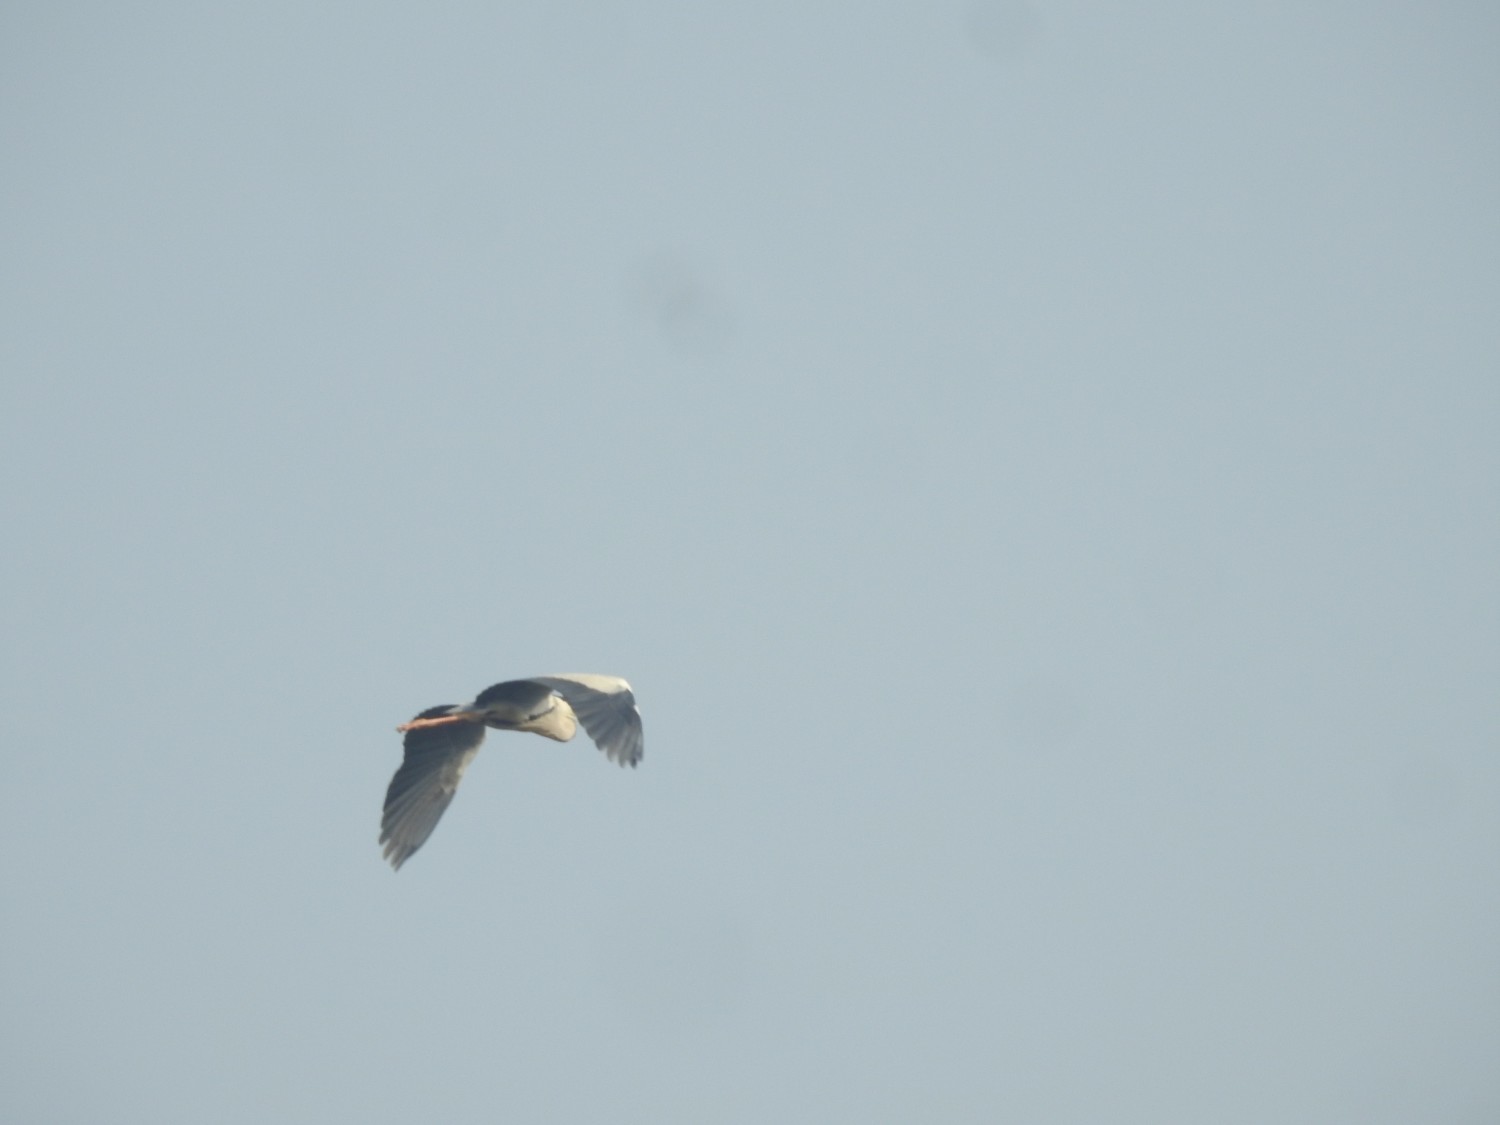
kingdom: Animalia
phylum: Chordata
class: Aves
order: Pelecaniformes
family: Ardeidae
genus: Ardea
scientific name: Ardea cinerea
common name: Grey heron
